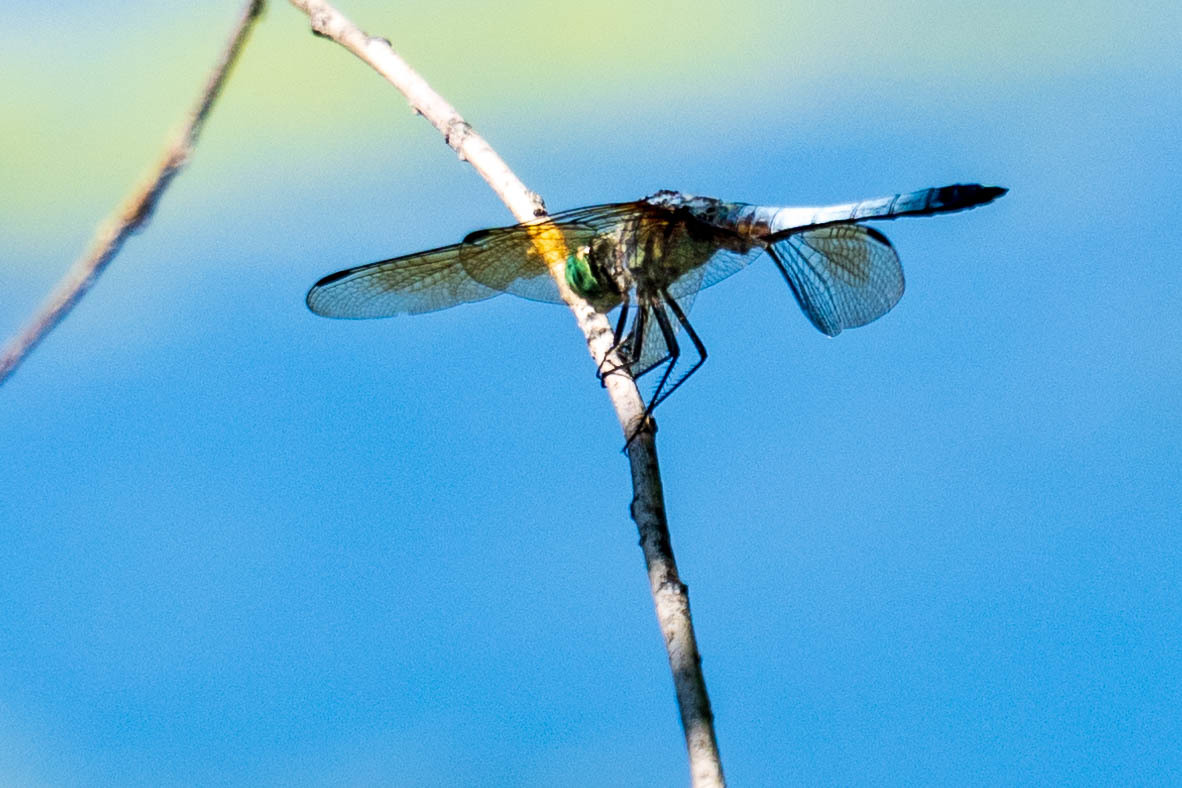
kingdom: Animalia
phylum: Arthropoda
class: Insecta
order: Odonata
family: Libellulidae
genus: Pachydiplax
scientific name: Pachydiplax longipennis
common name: Blue dasher
